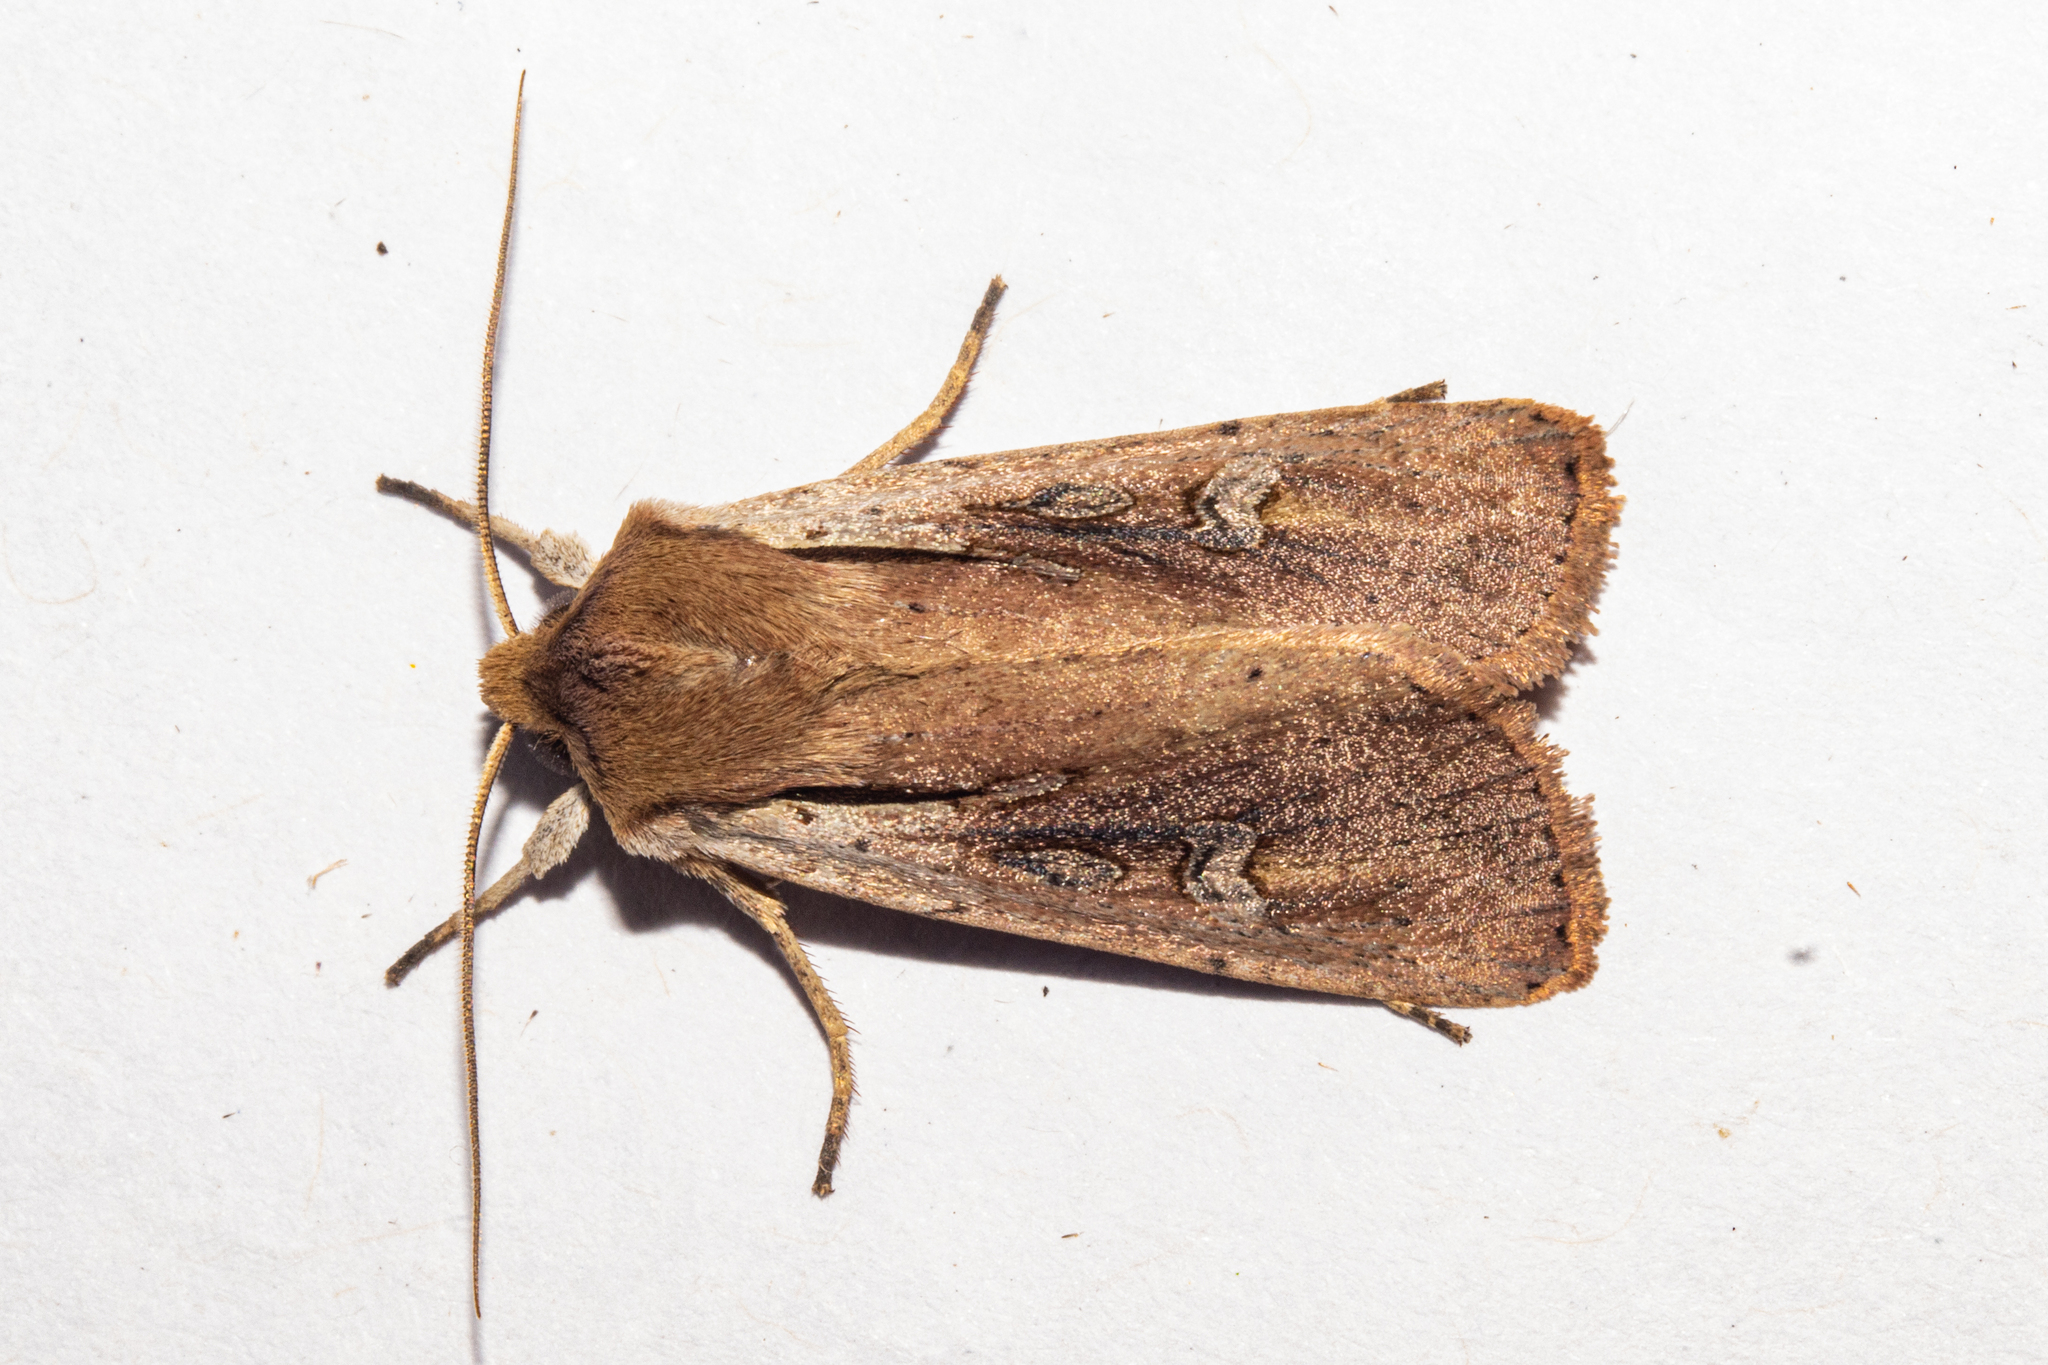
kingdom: Animalia
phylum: Arthropoda
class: Insecta
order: Lepidoptera
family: Noctuidae
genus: Ichneutica
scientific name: Ichneutica atristriga
